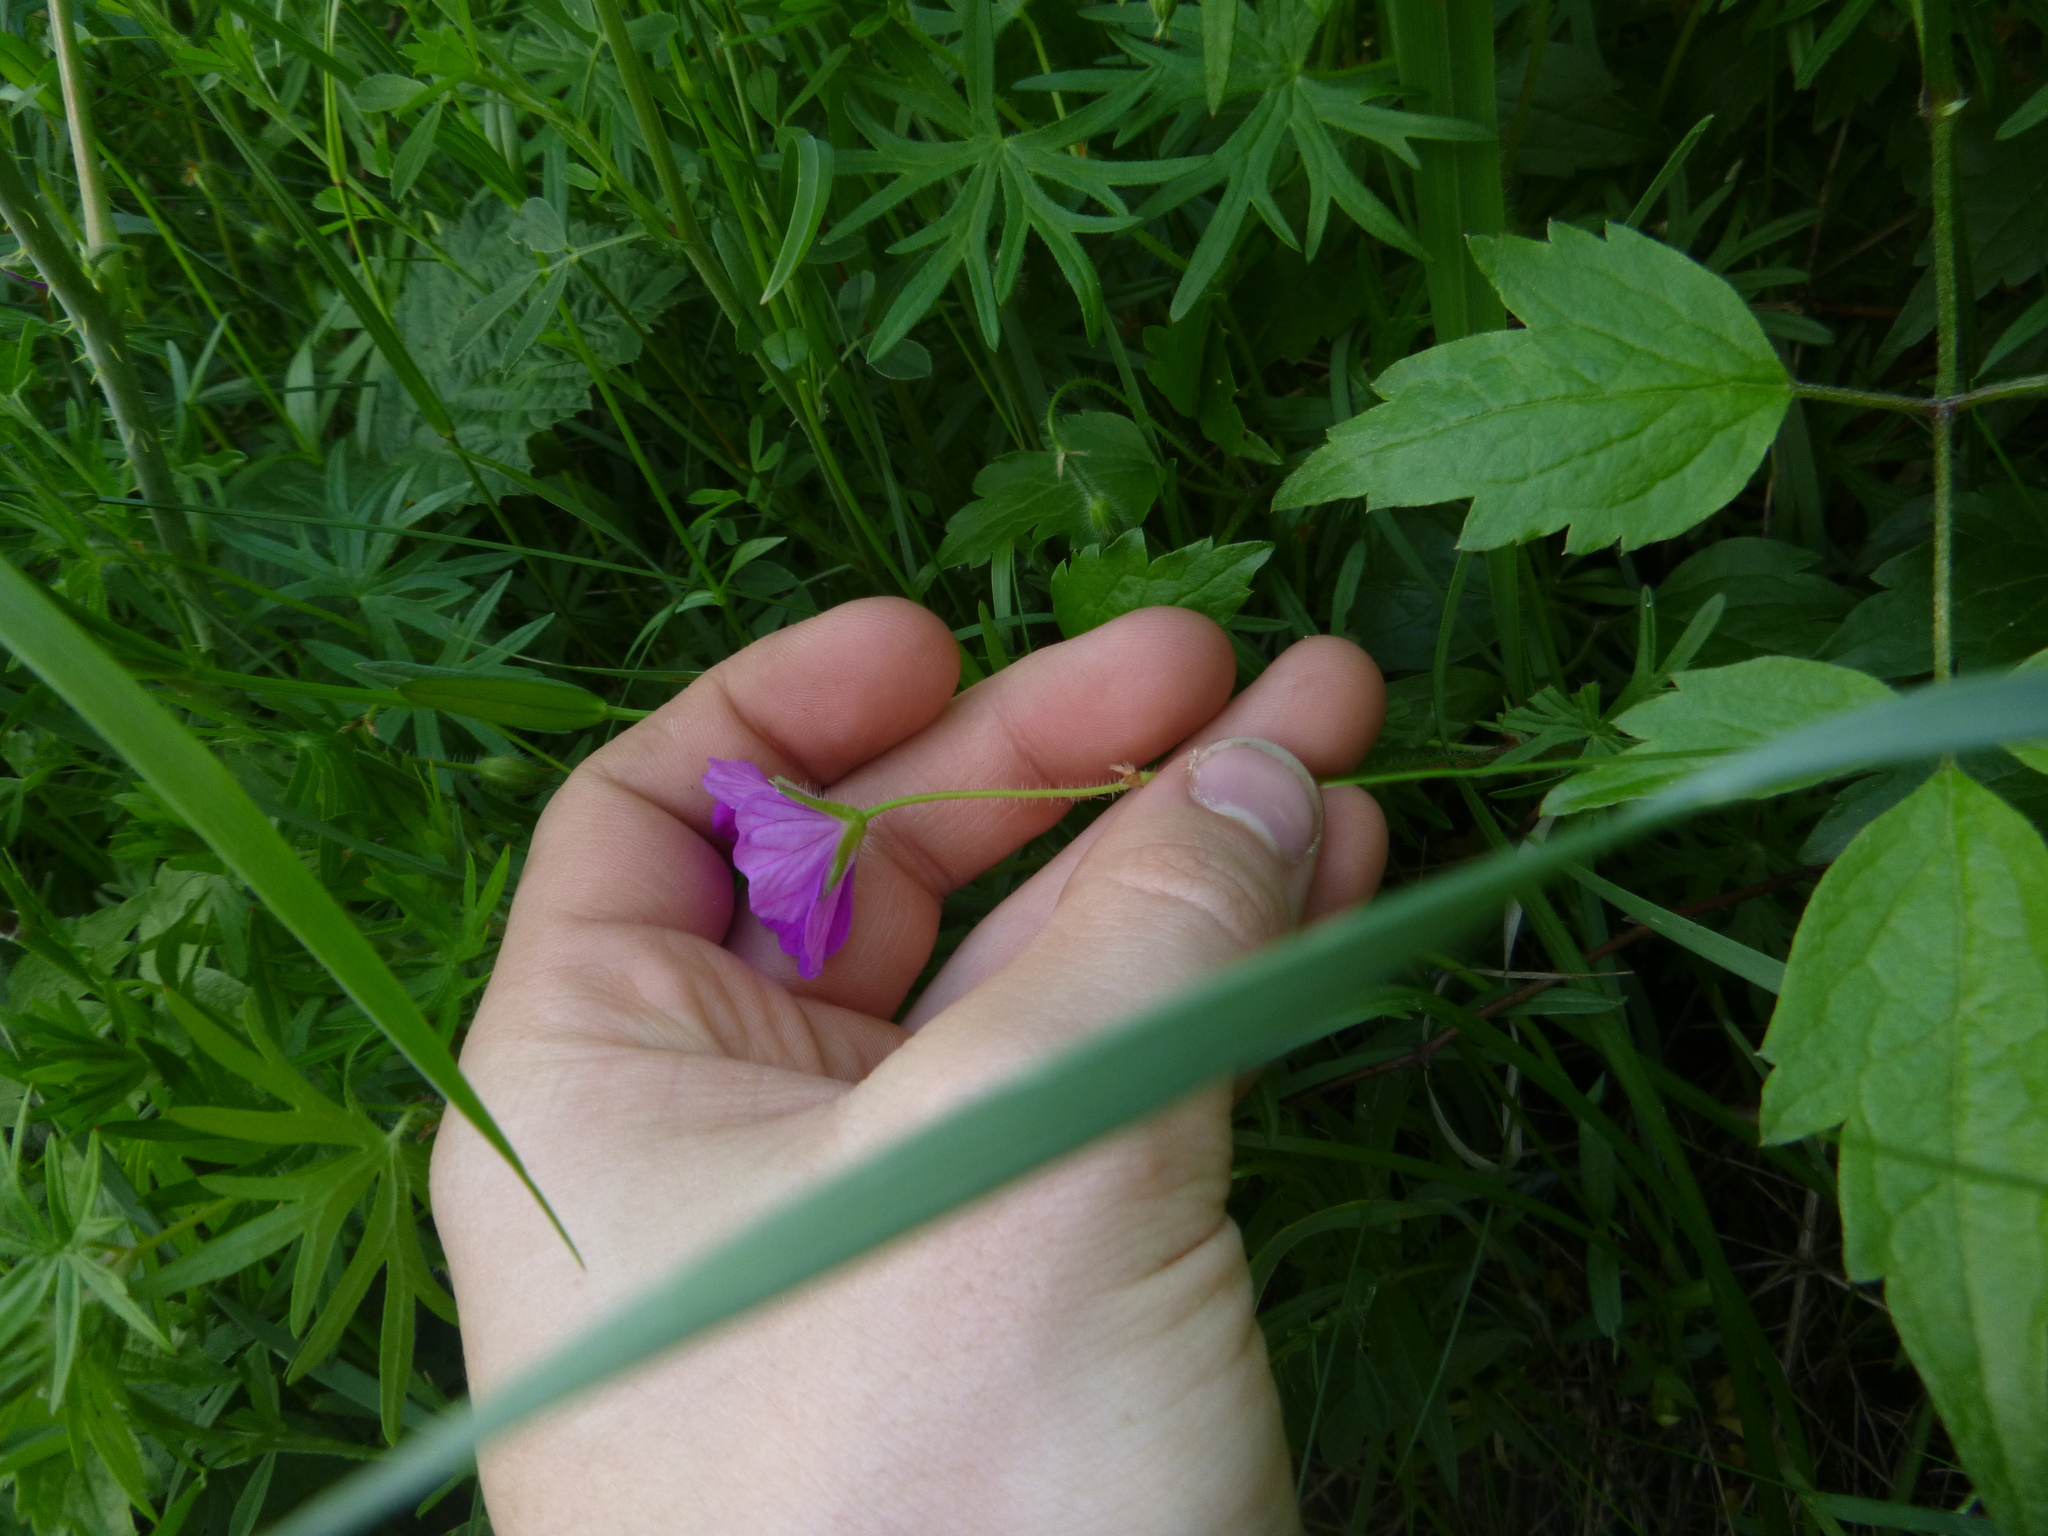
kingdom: Plantae
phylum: Tracheophyta
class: Magnoliopsida
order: Geraniales
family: Geraniaceae
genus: Geranium
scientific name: Geranium sanguineum
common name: Bloody crane's-bill
